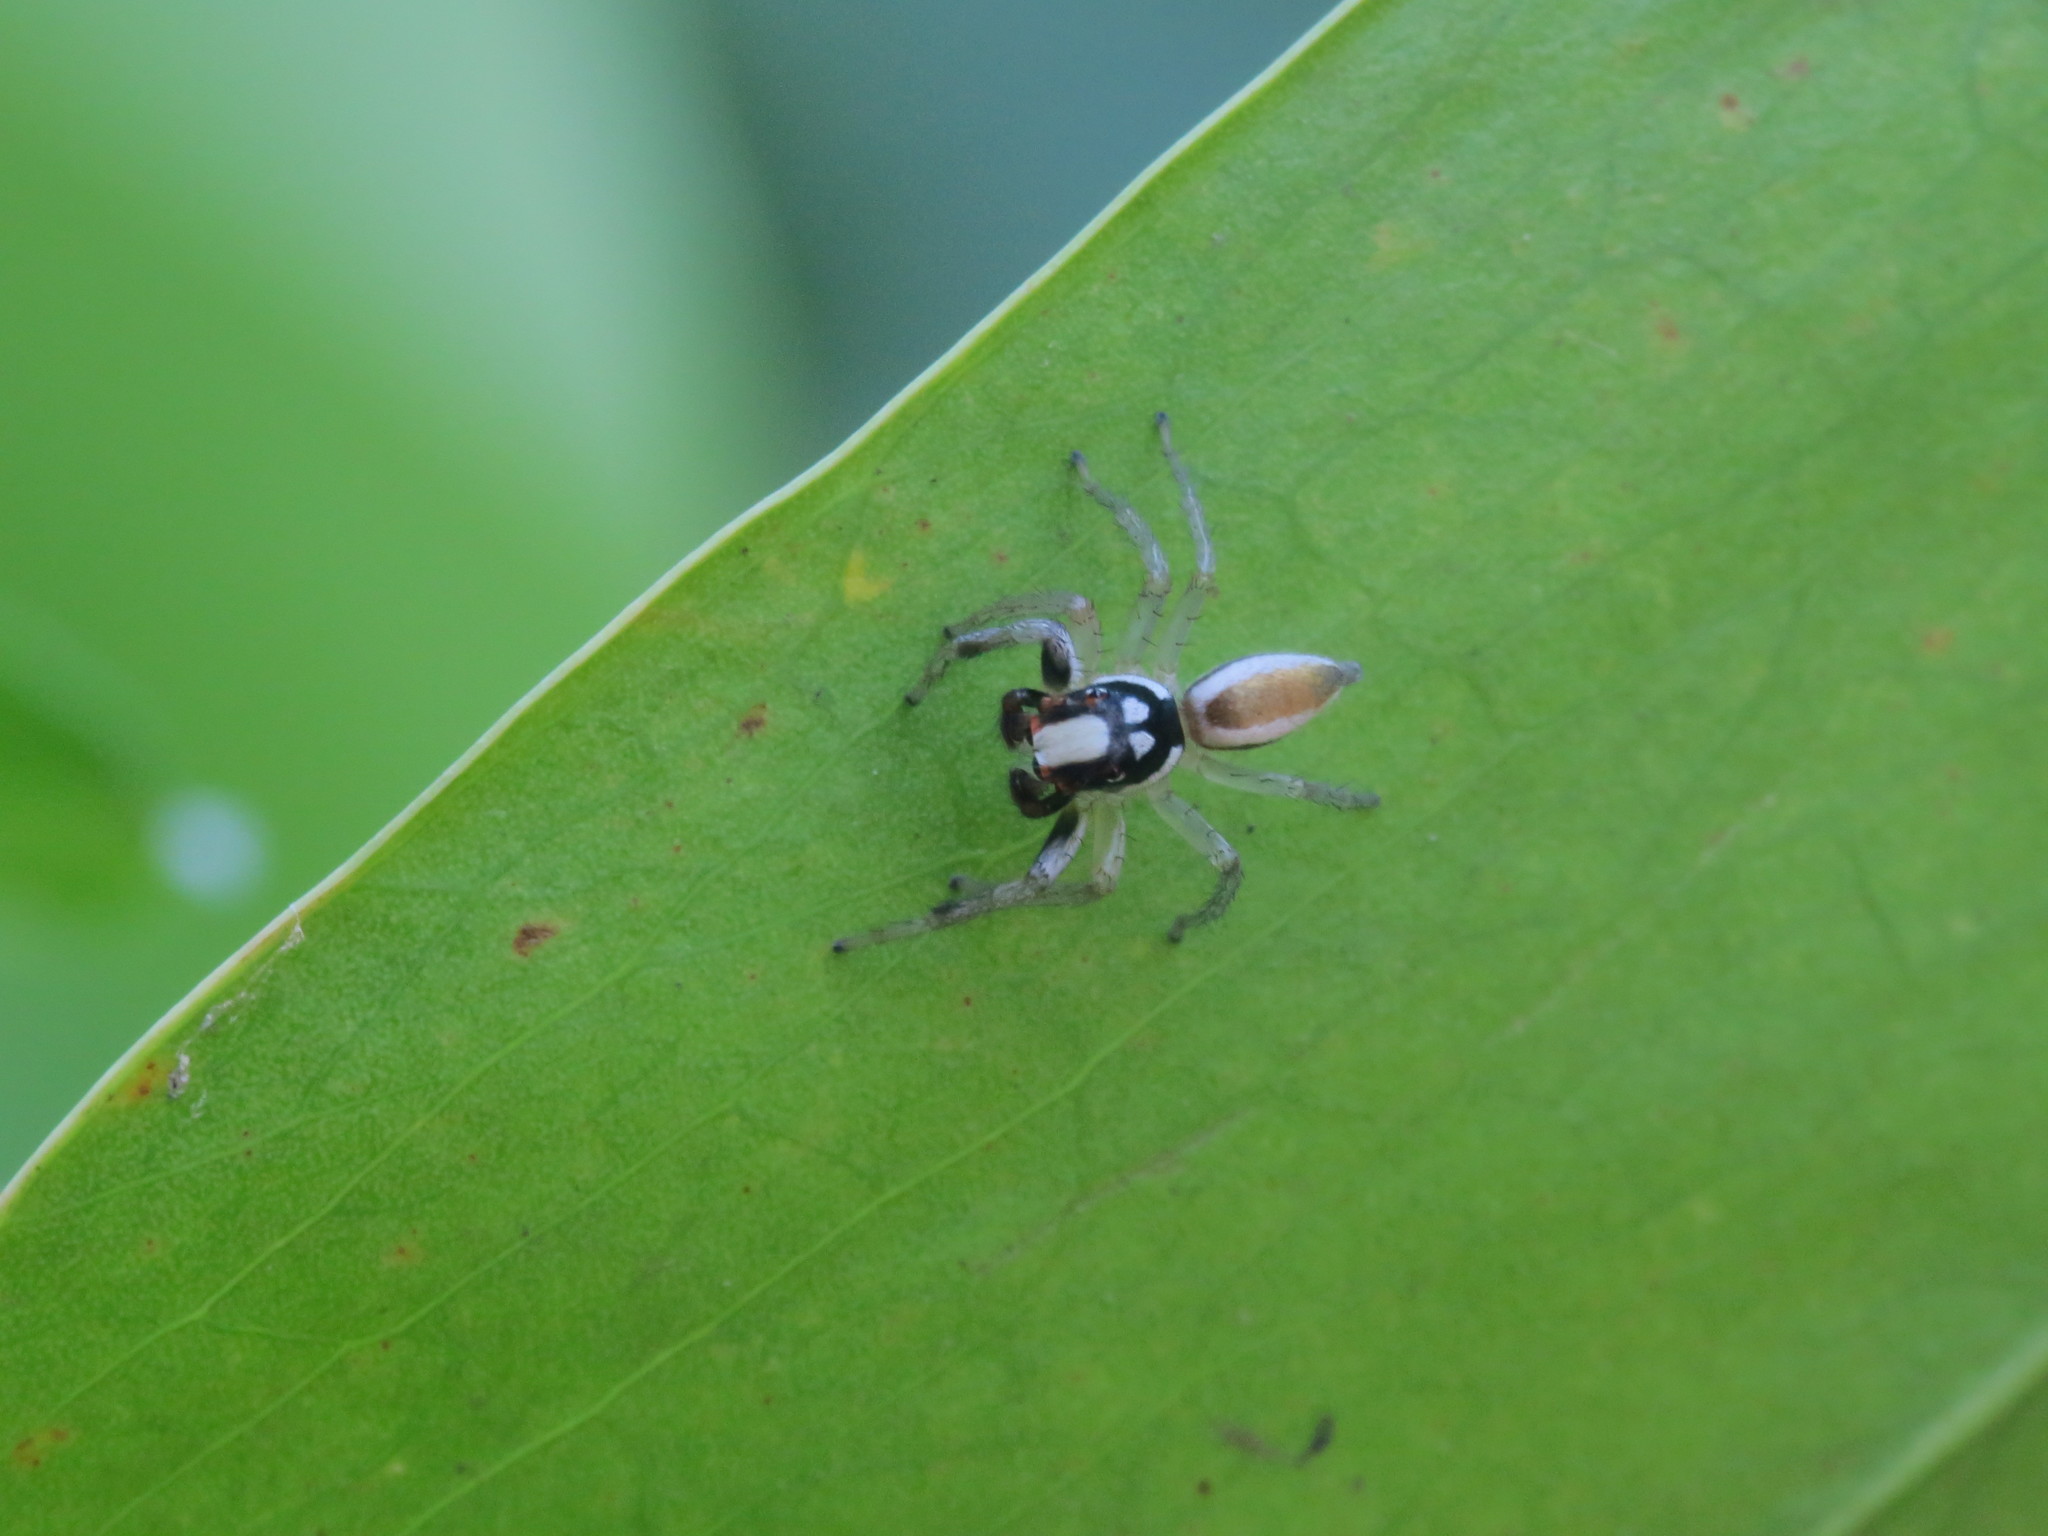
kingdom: Animalia
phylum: Arthropoda
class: Arachnida
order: Araneae
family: Salticidae
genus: Chira
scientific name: Chira spinosa
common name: Jumping spiders
